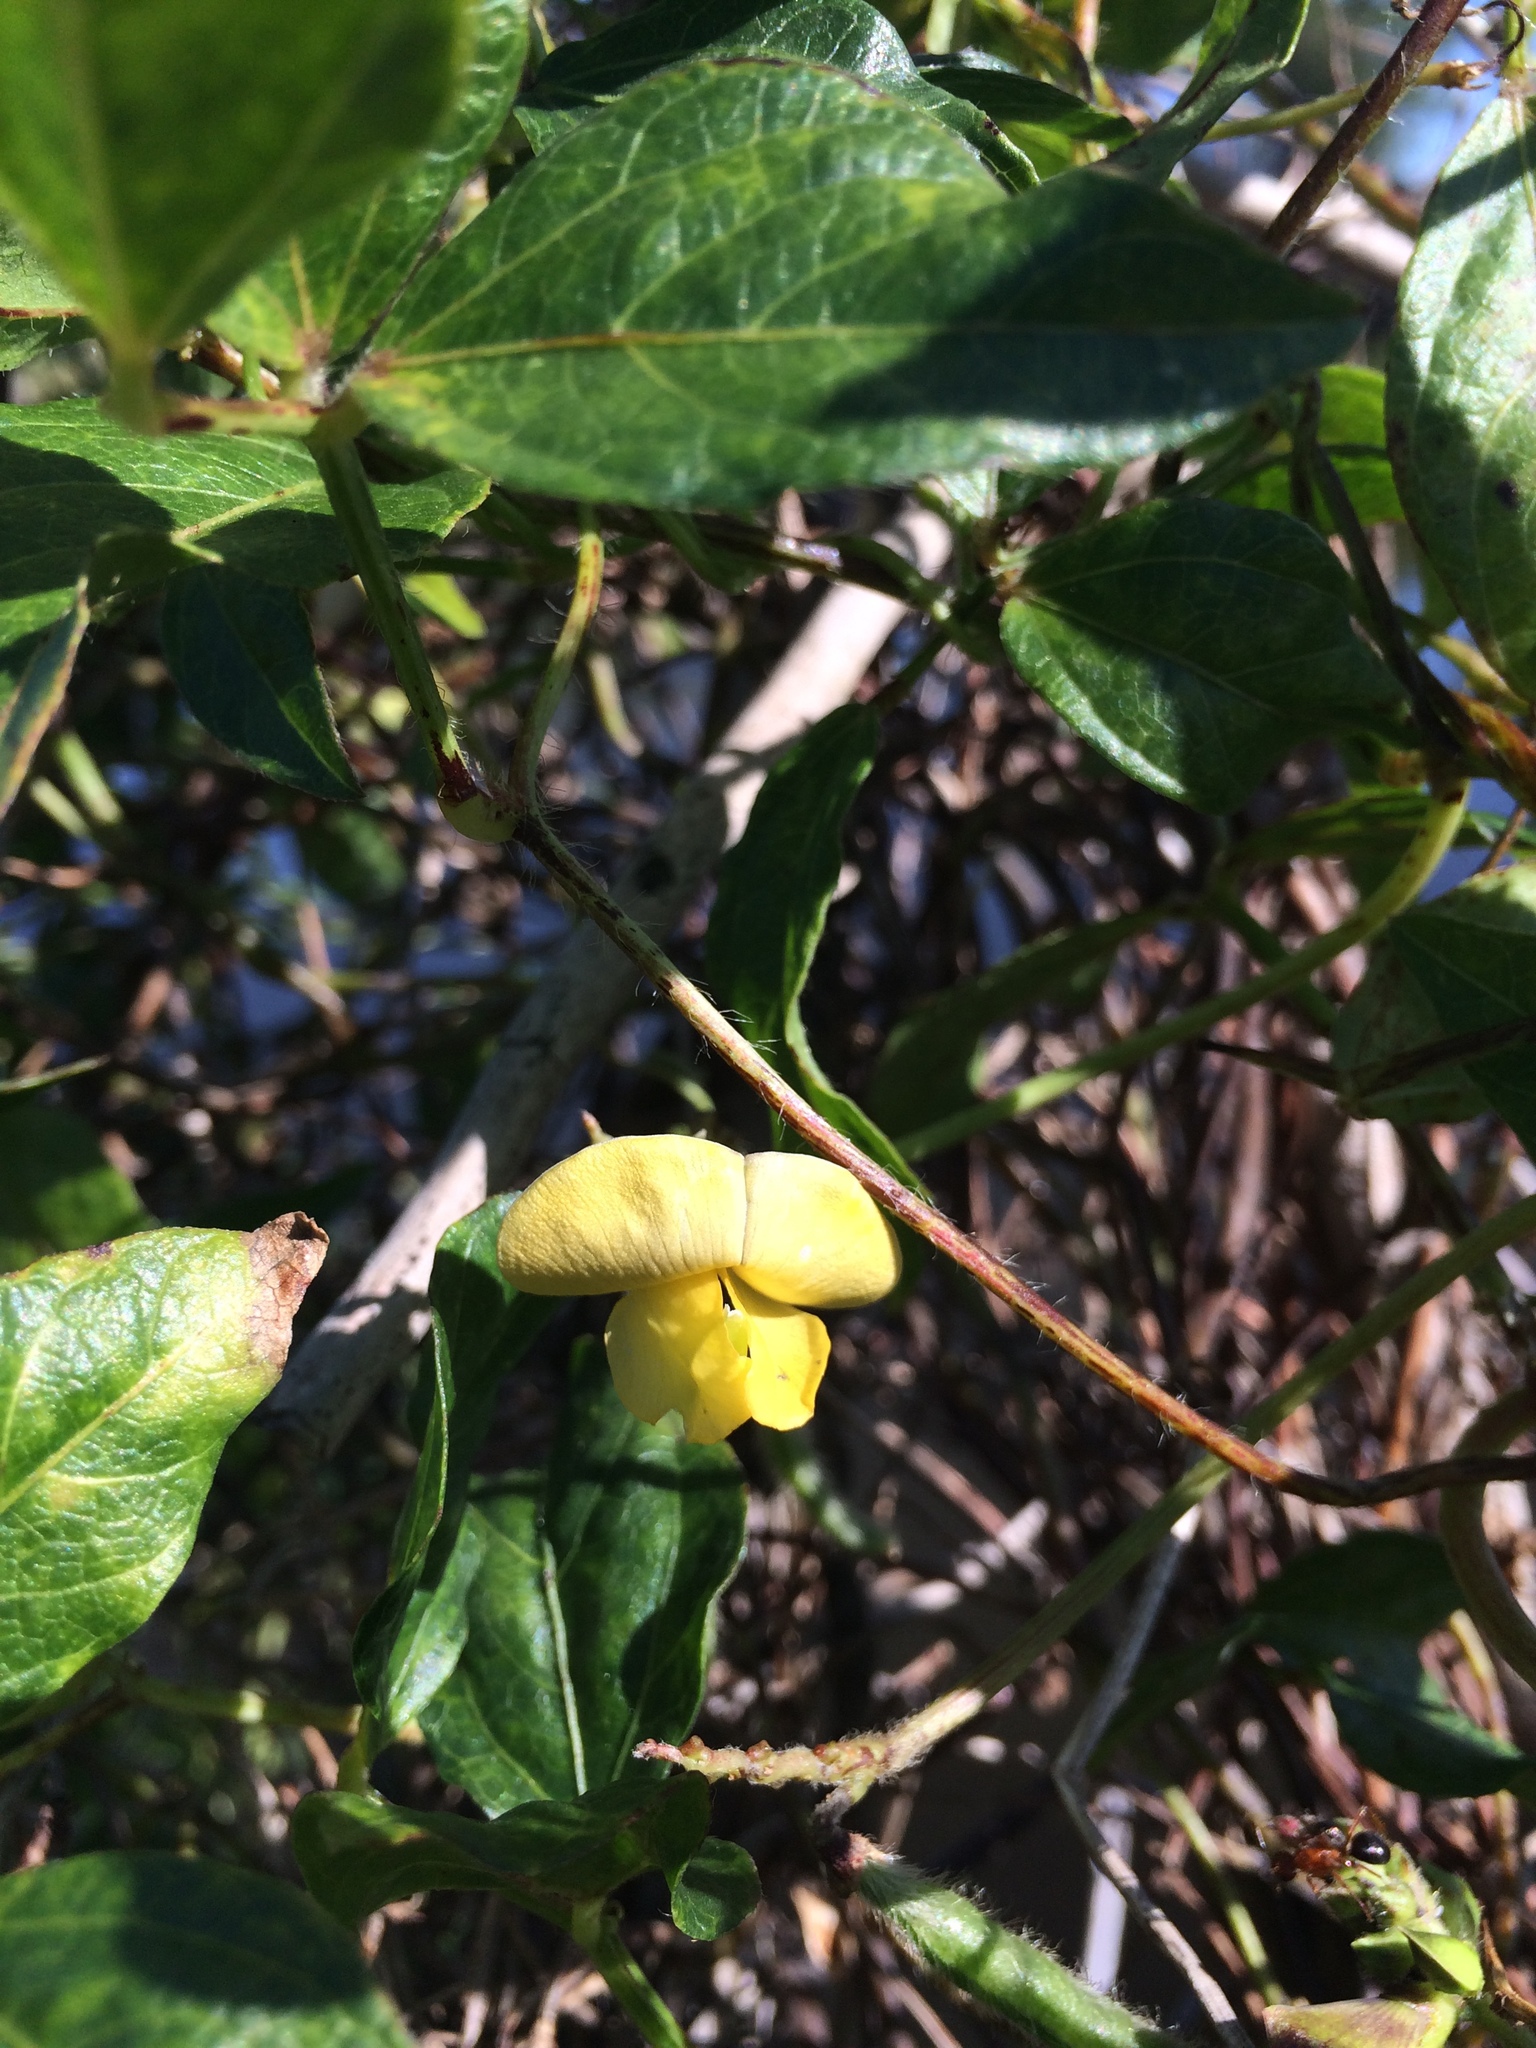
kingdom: Plantae
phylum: Tracheophyta
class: Magnoliopsida
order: Fabales
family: Fabaceae
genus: Vigna
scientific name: Vigna luteola
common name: Hairypod cowpea
